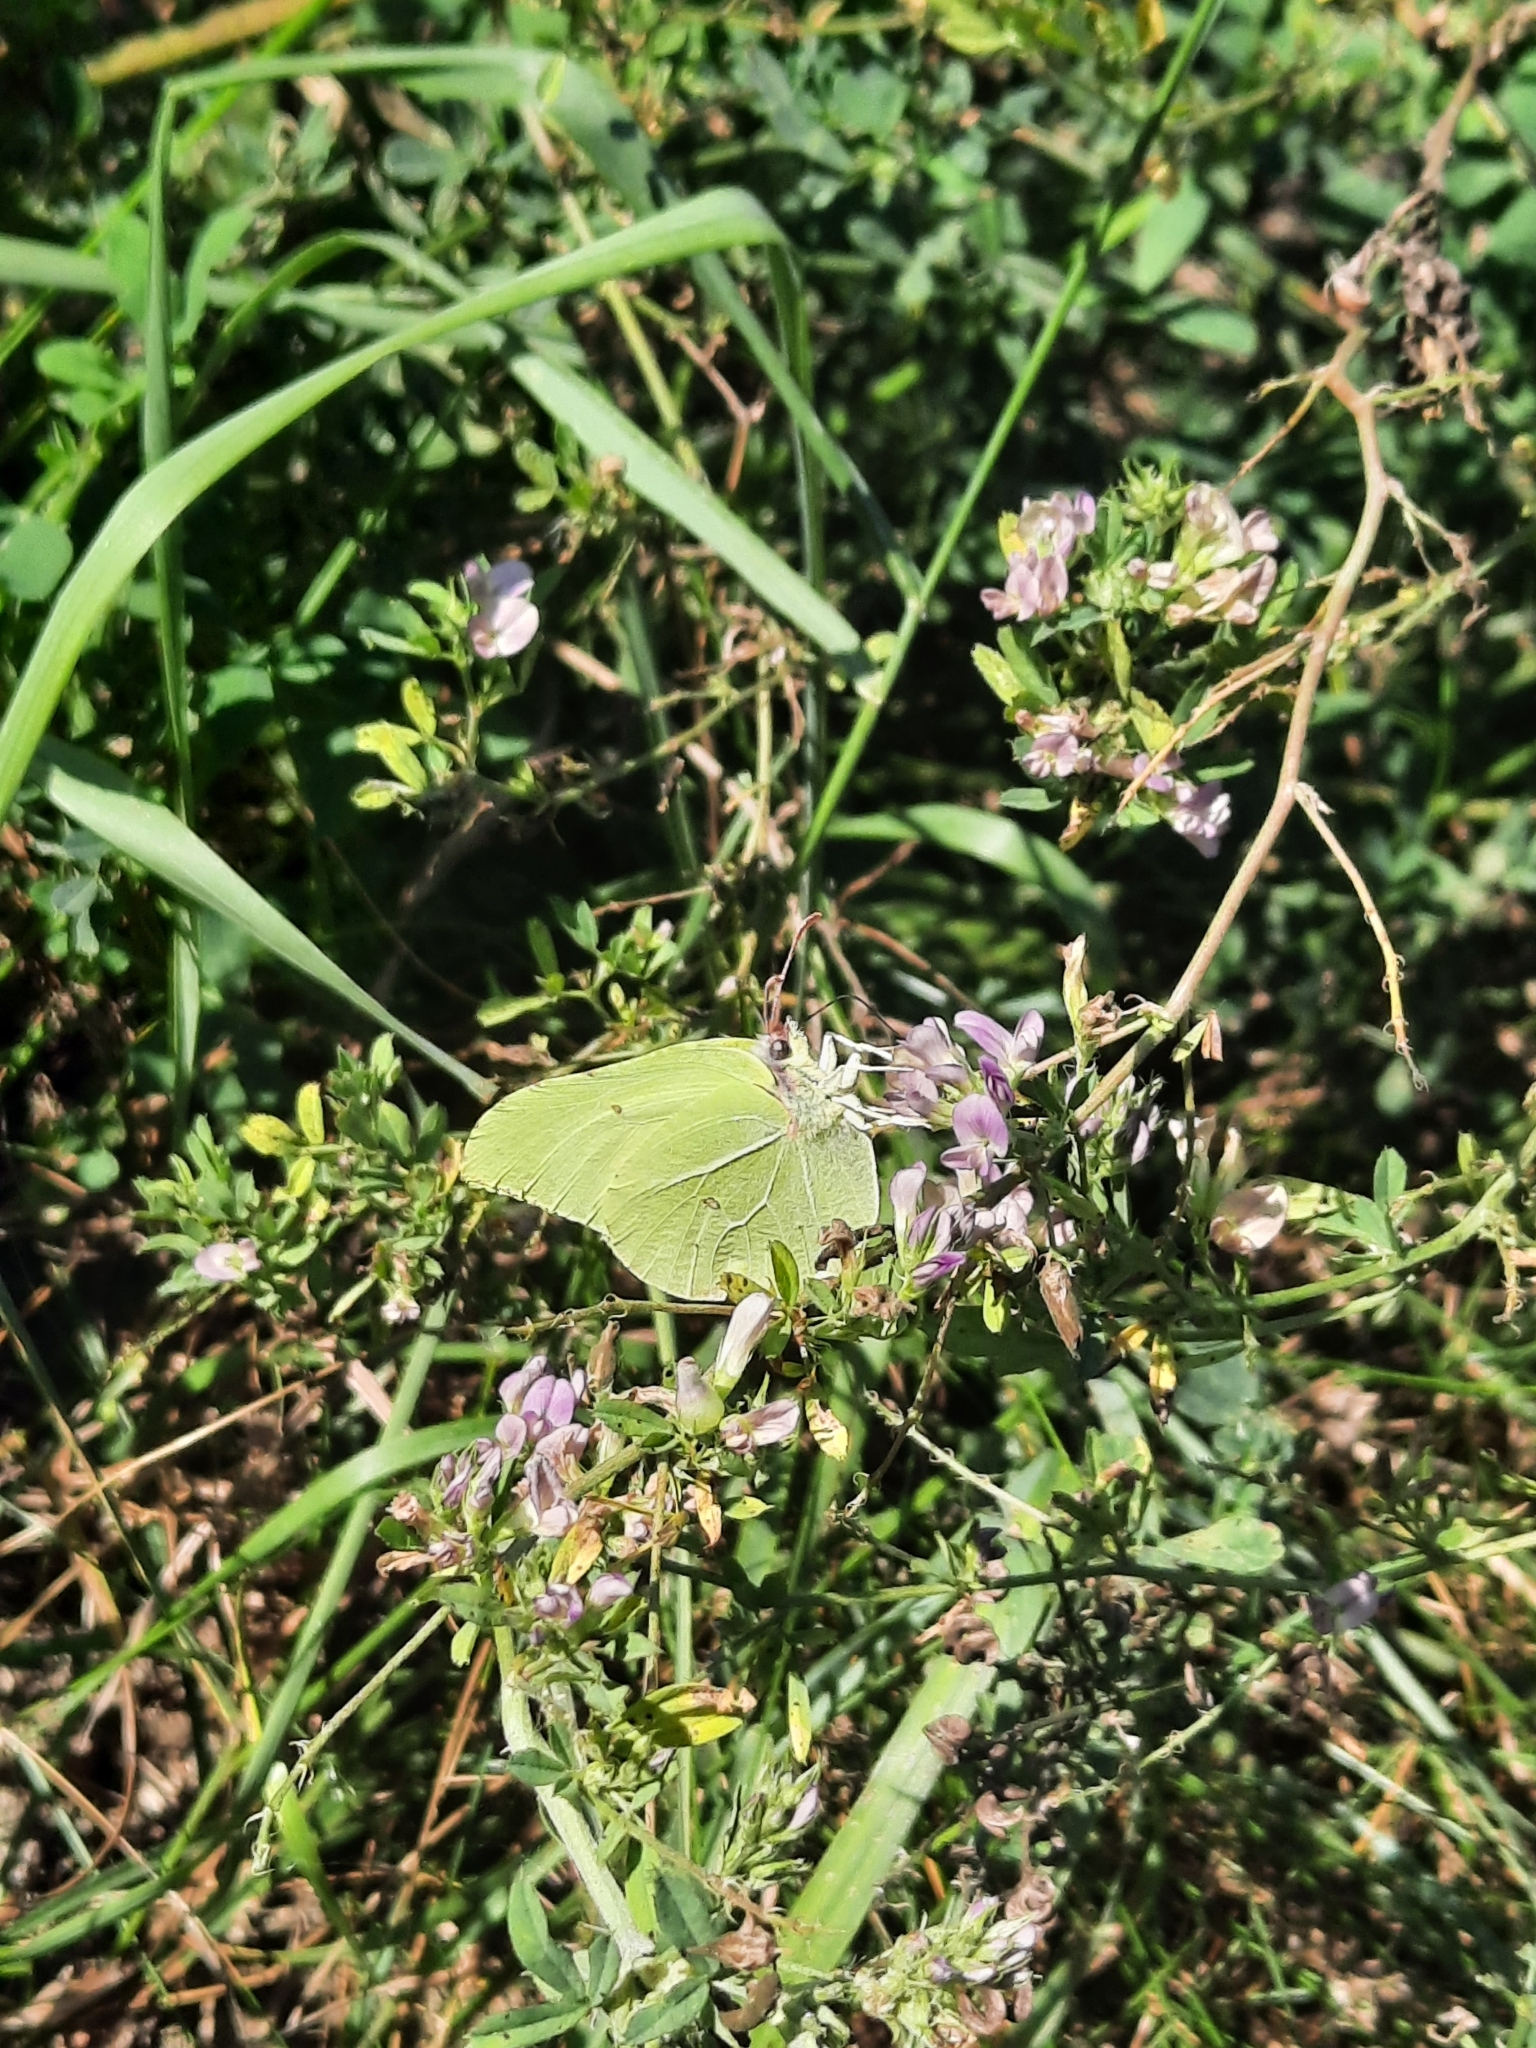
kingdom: Animalia
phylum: Arthropoda
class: Insecta
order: Lepidoptera
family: Pieridae
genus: Gonepteryx
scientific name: Gonepteryx rhamni
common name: Brimstone
